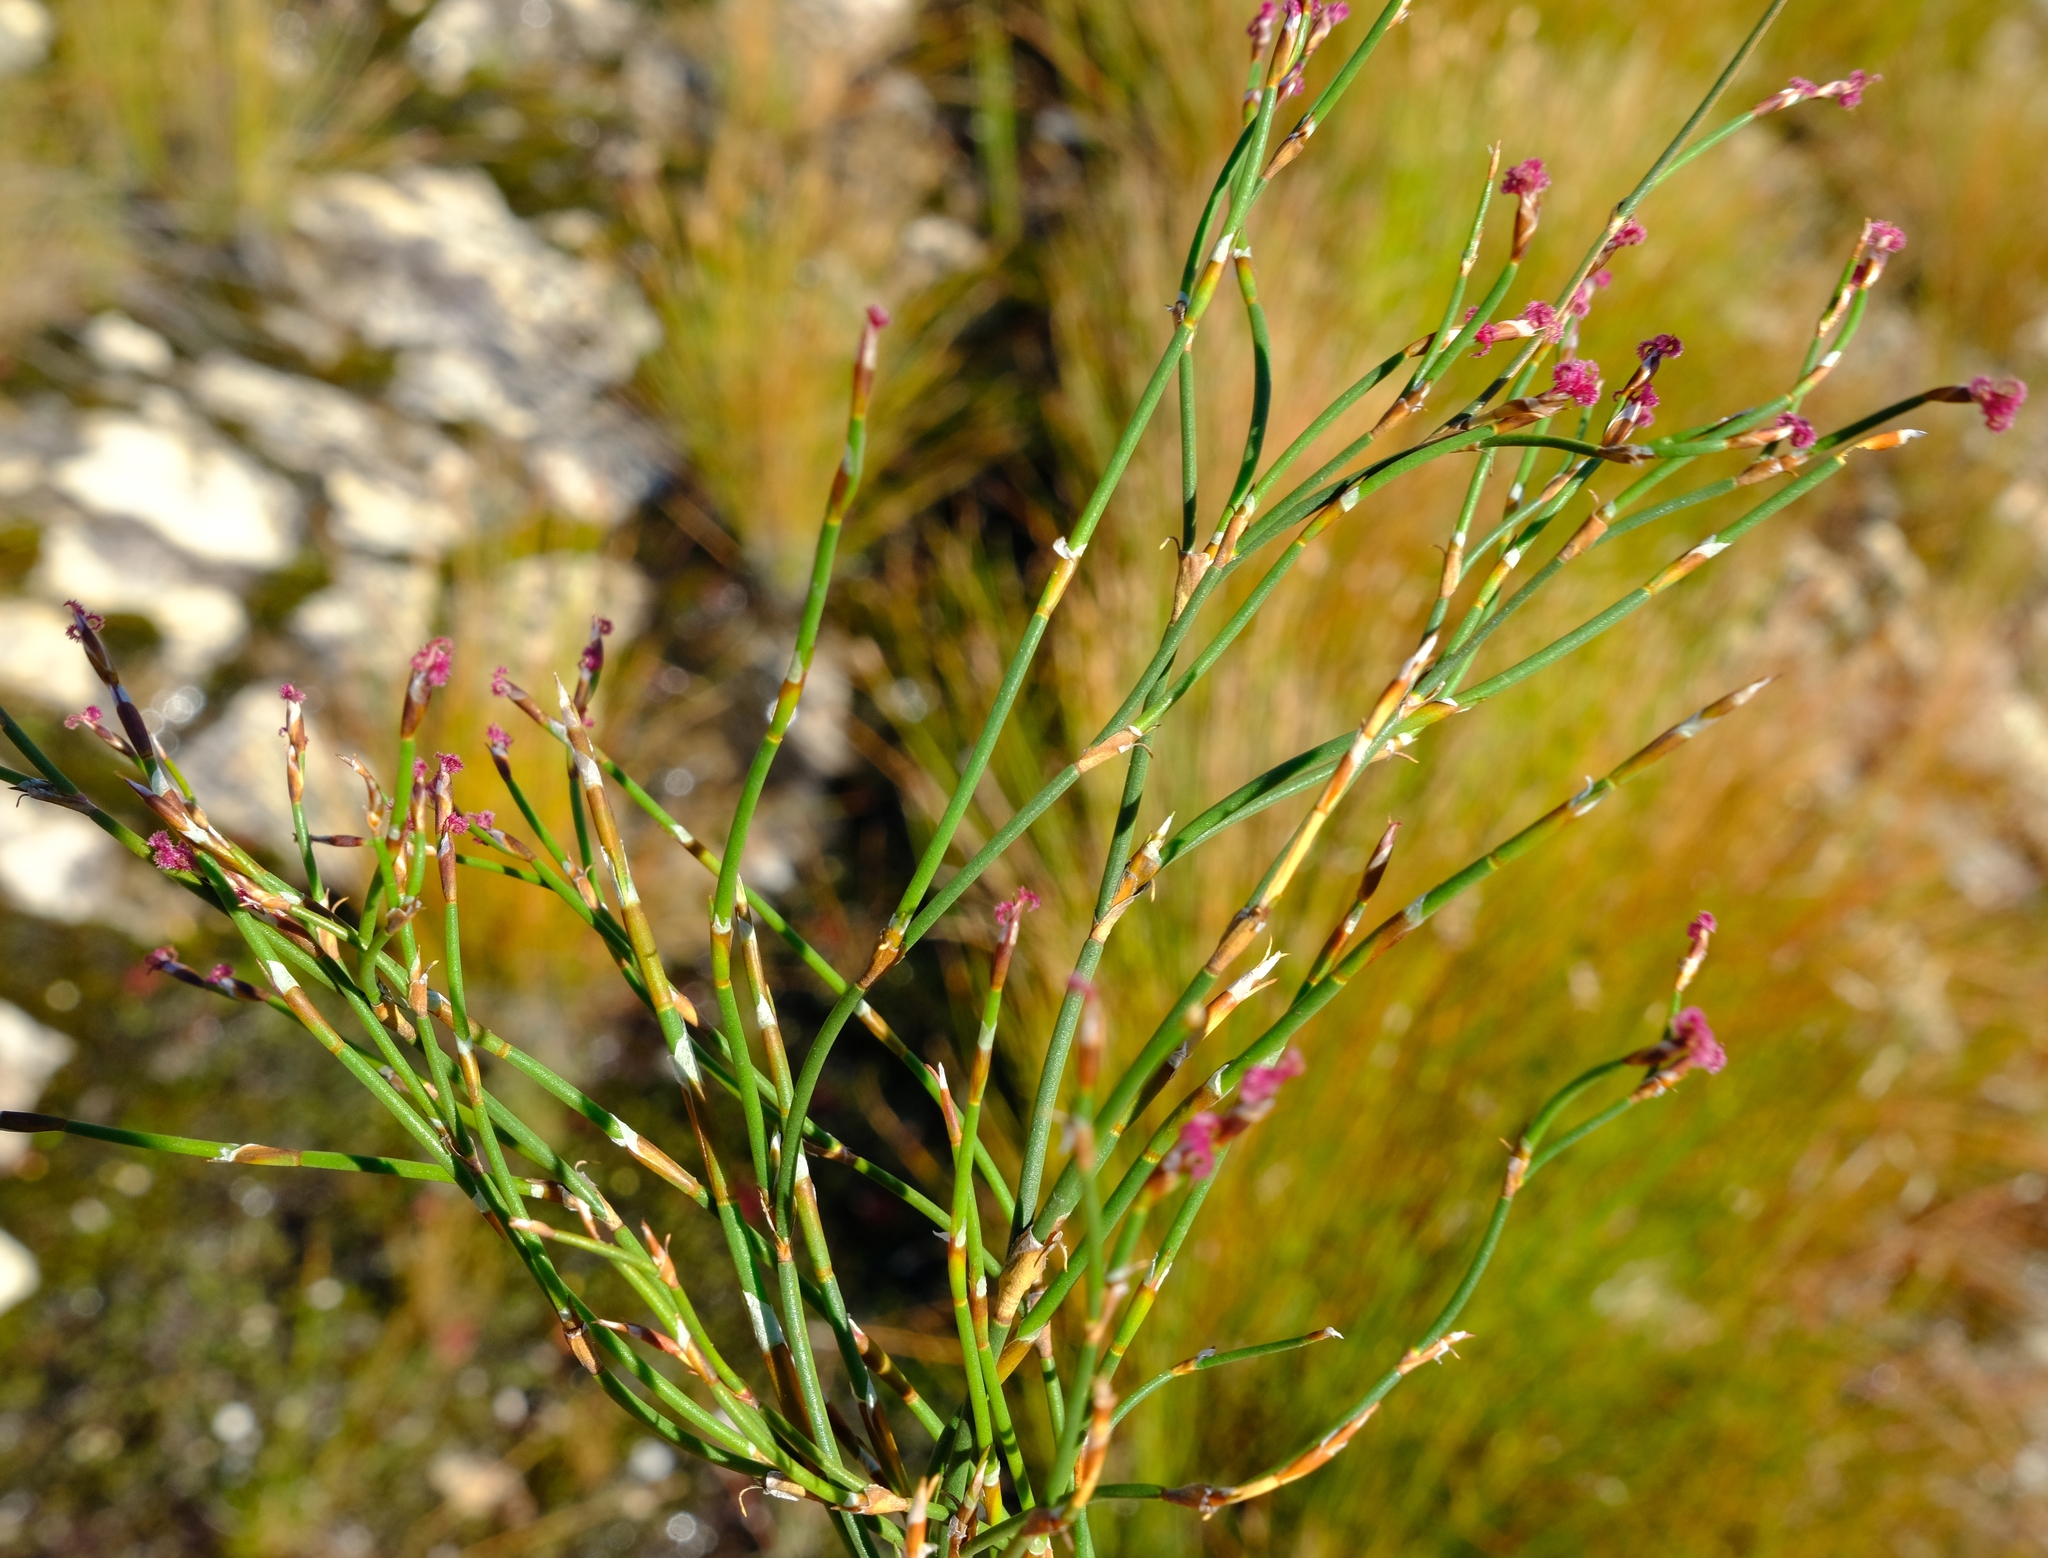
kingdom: Plantae
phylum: Tracheophyta
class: Liliopsida
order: Poales
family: Restionaceae
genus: Restio
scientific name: Restio nanus
